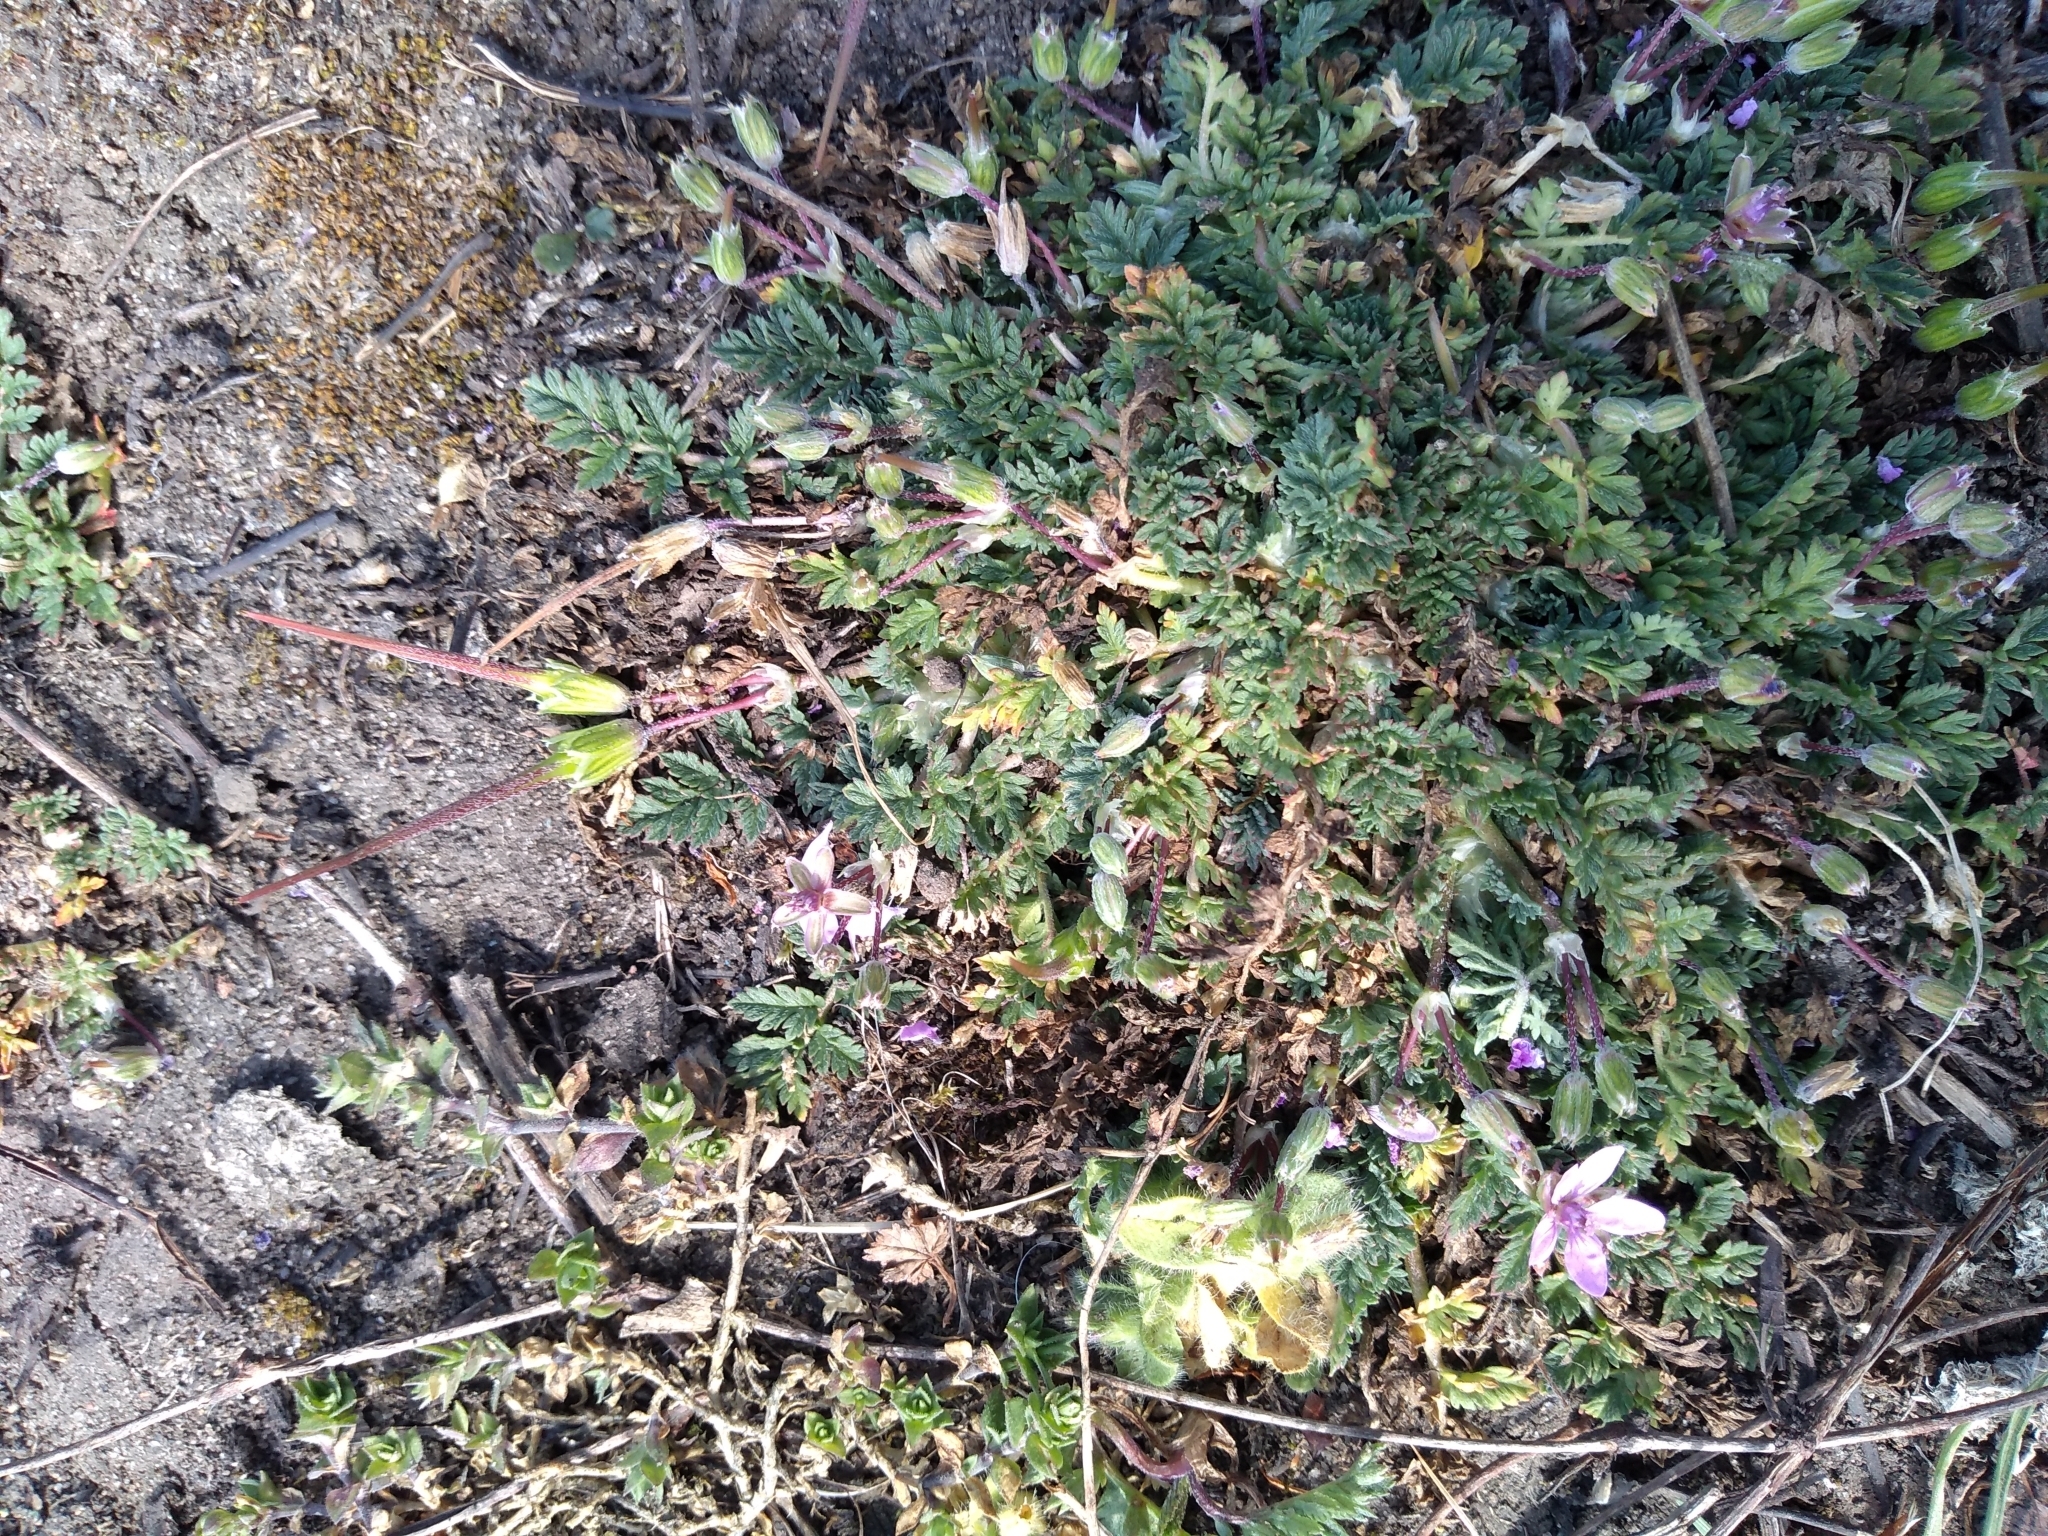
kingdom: Plantae
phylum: Tracheophyta
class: Magnoliopsida
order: Geraniales
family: Geraniaceae
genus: Erodium
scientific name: Erodium cicutarium
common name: Common stork's-bill
